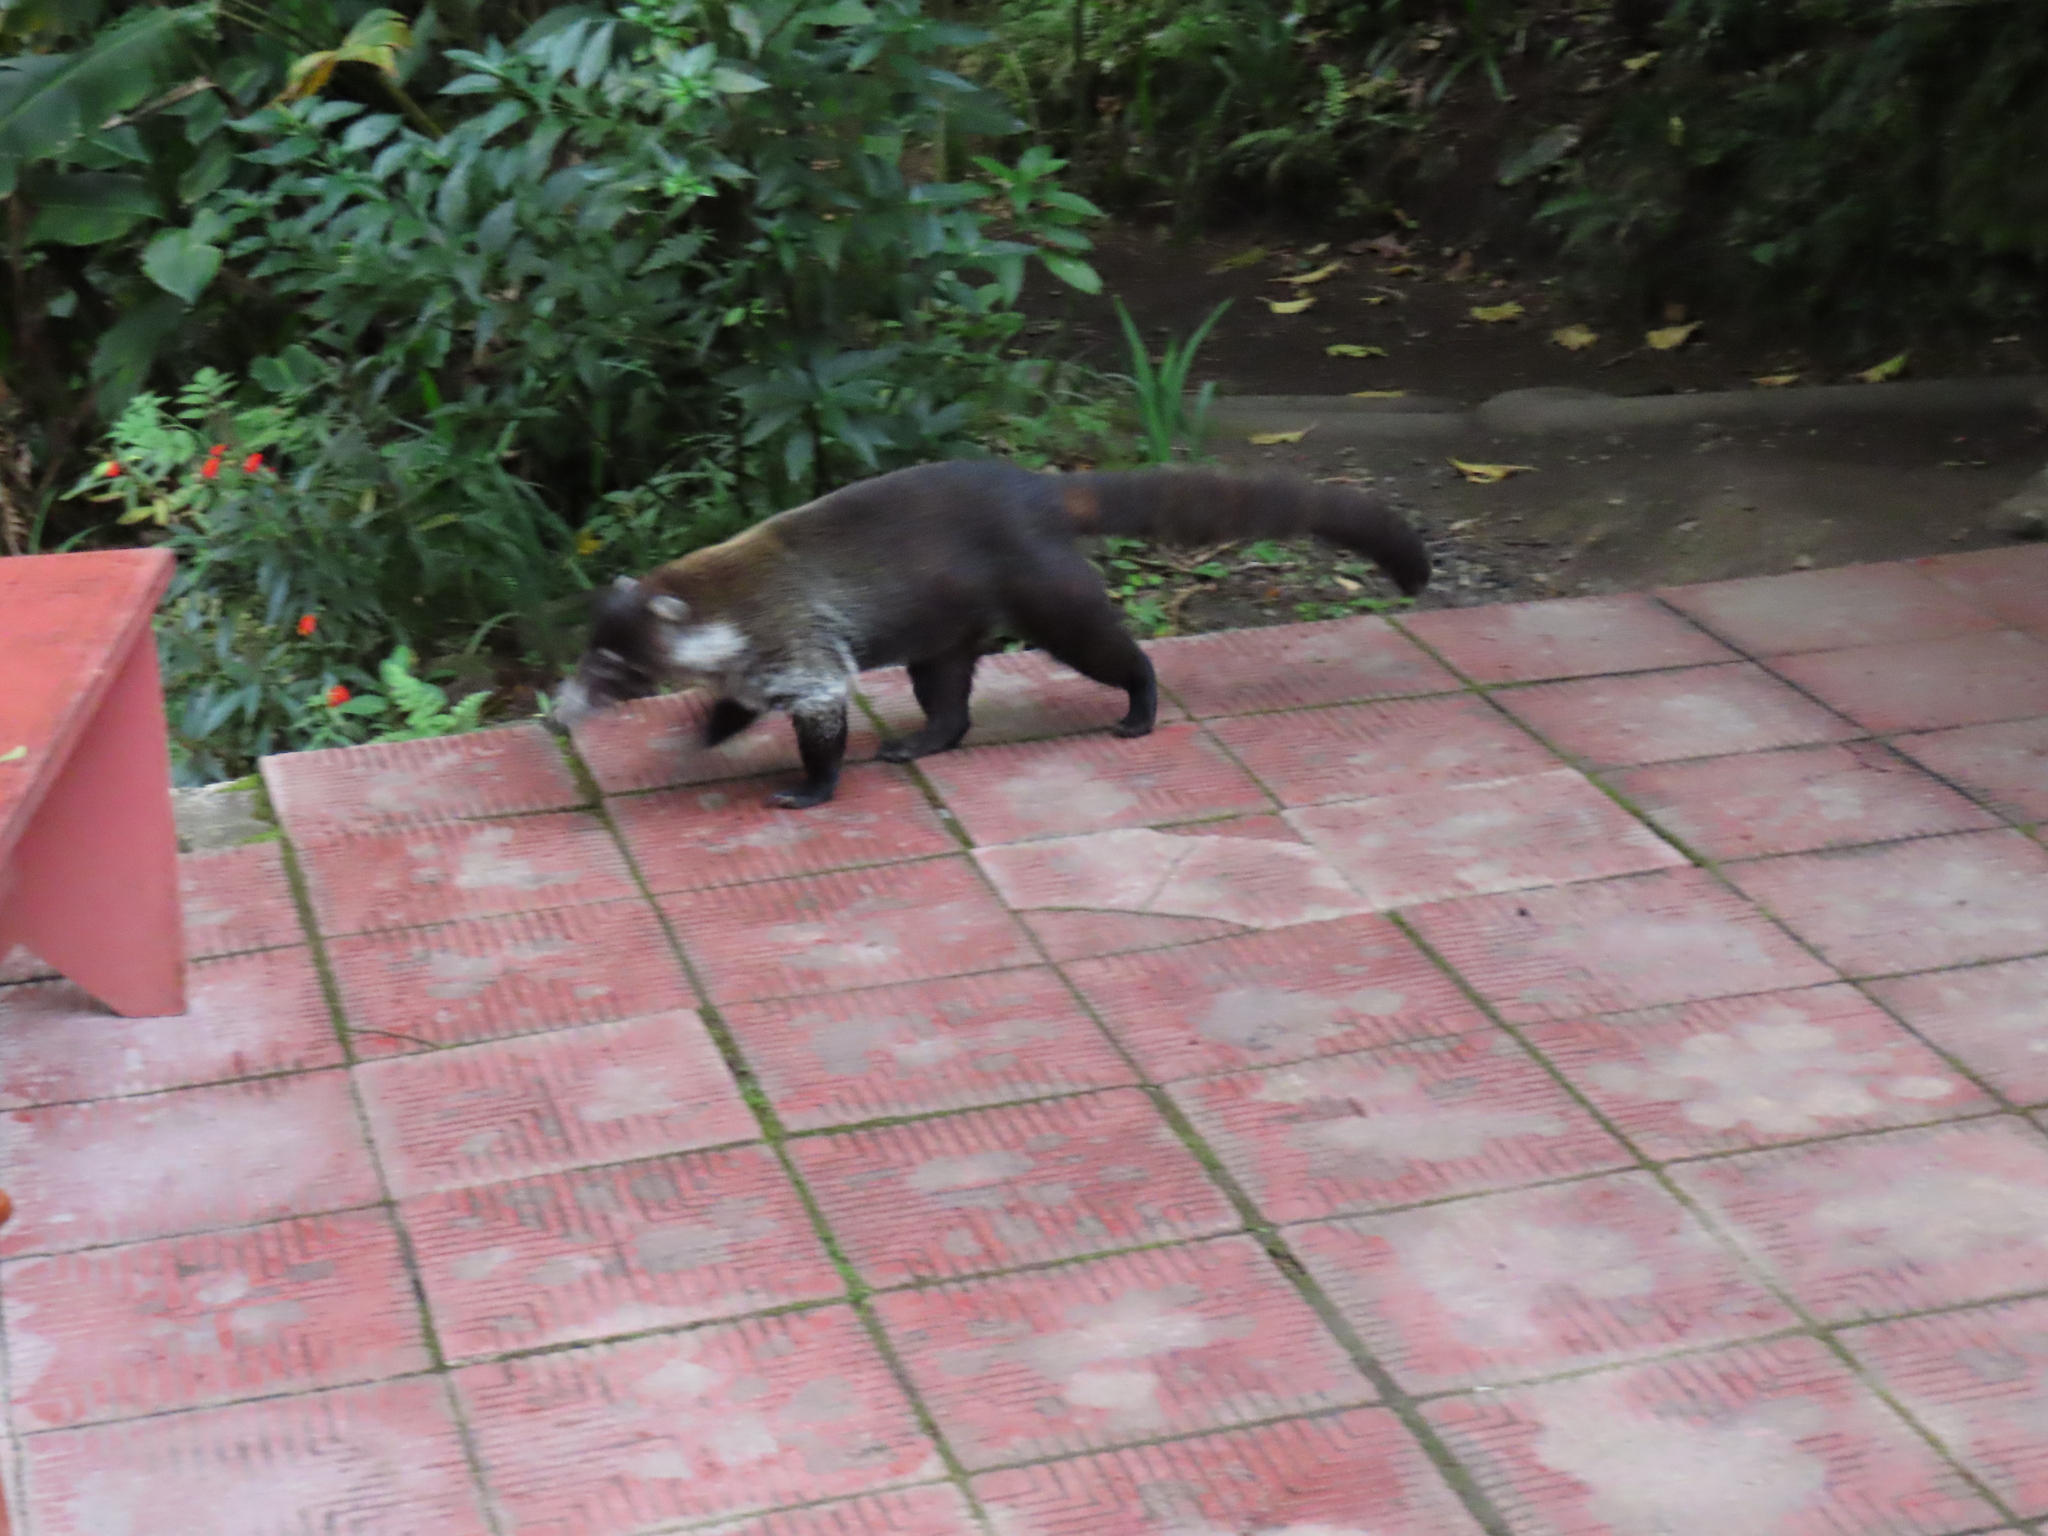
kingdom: Animalia
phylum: Chordata
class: Mammalia
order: Carnivora
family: Procyonidae
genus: Nasua
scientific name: Nasua narica
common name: White-nosed coati
